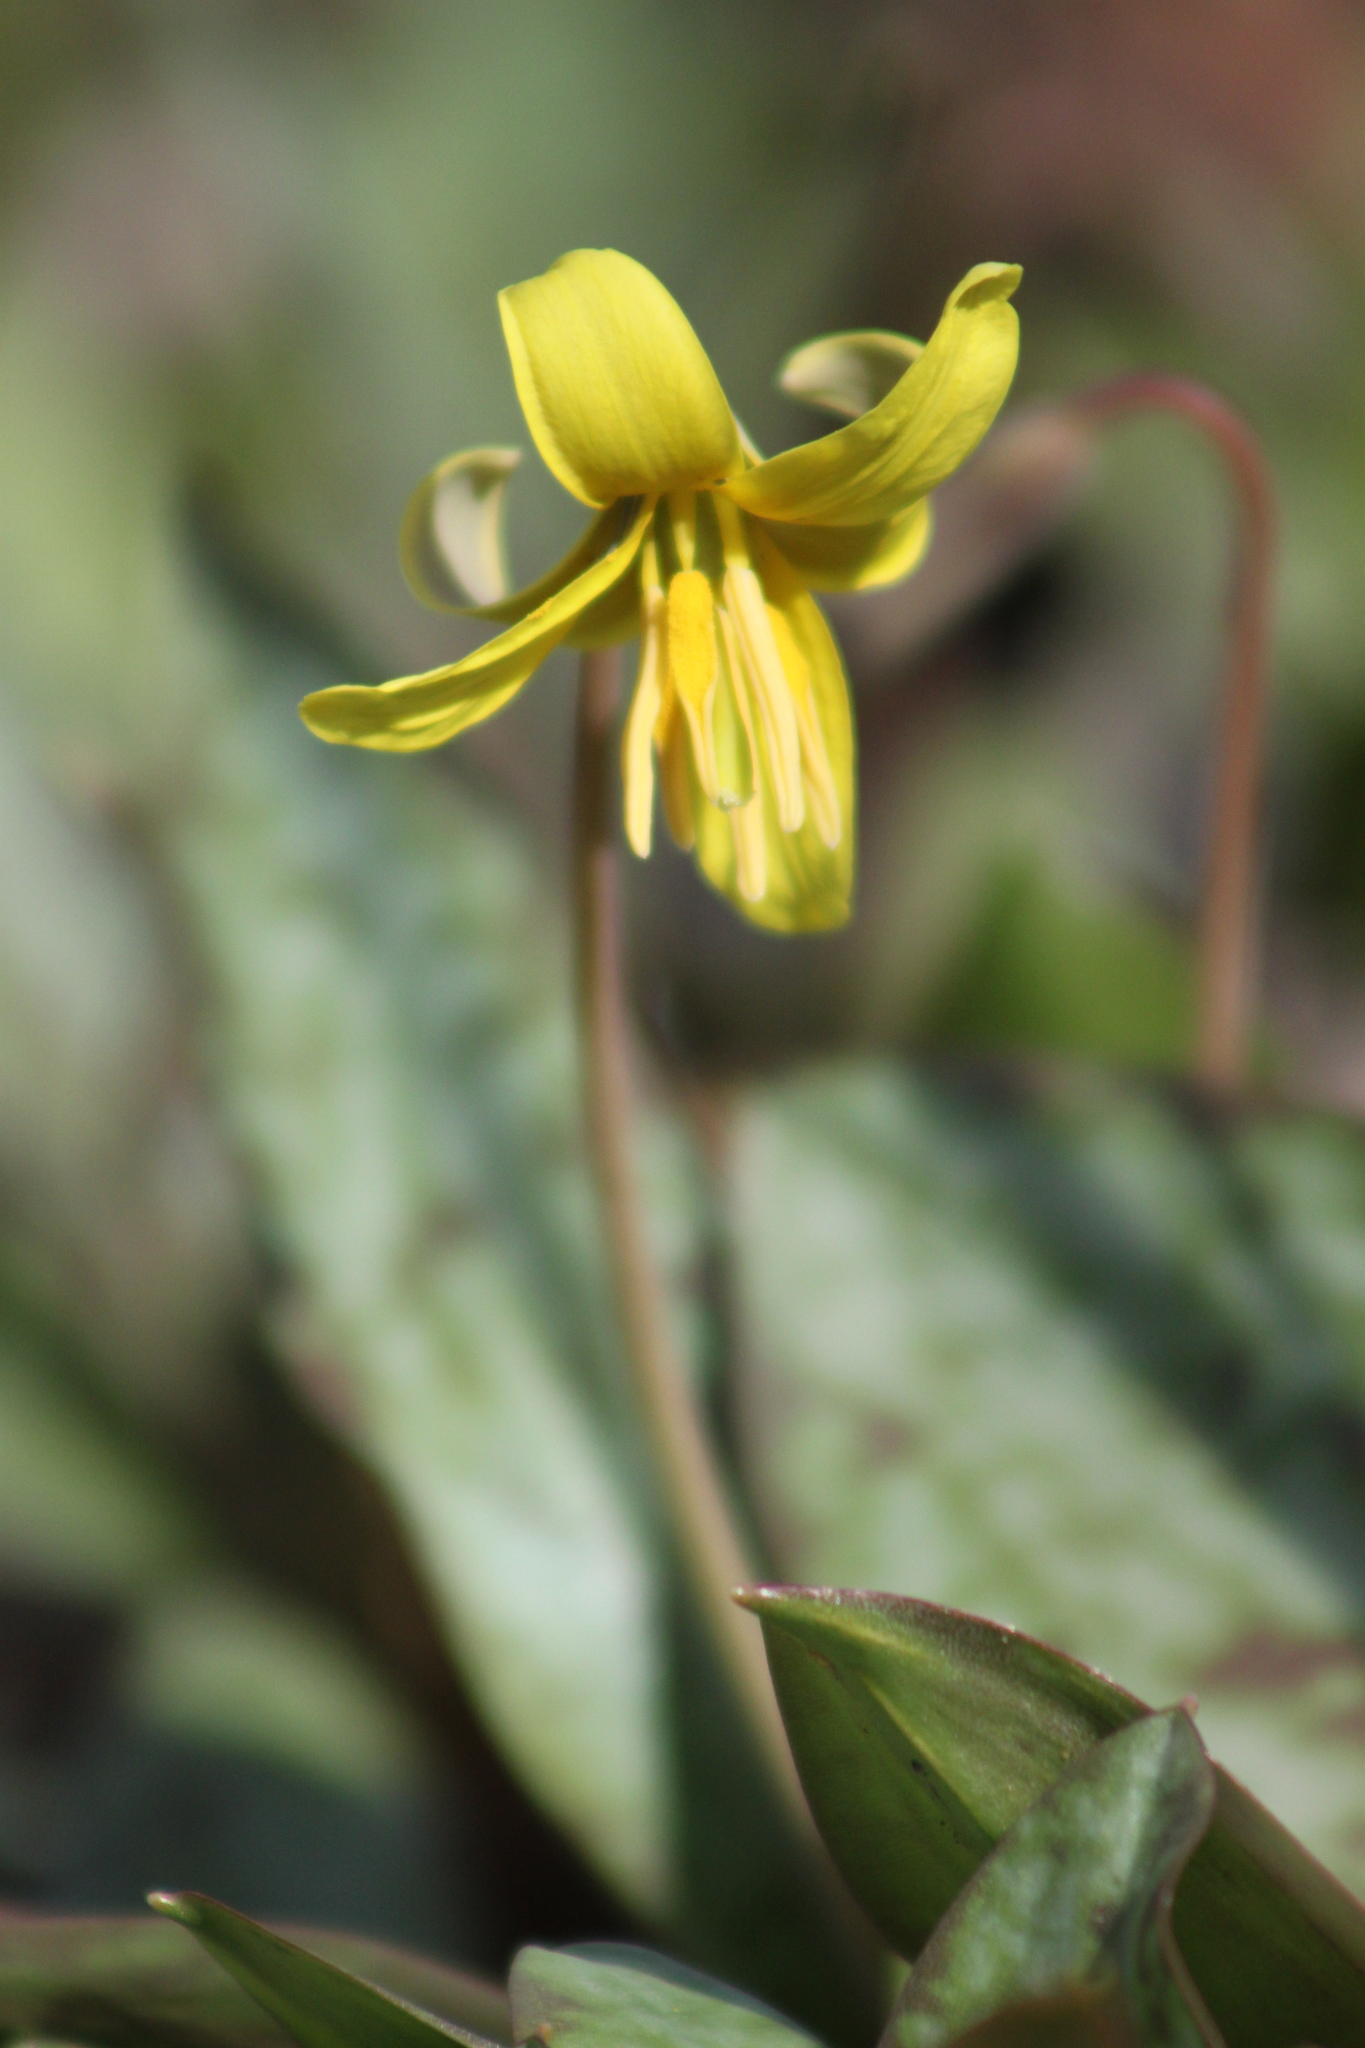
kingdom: Plantae
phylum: Tracheophyta
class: Liliopsida
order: Liliales
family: Liliaceae
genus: Erythronium
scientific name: Erythronium americanum
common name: Yellow adder's-tongue
